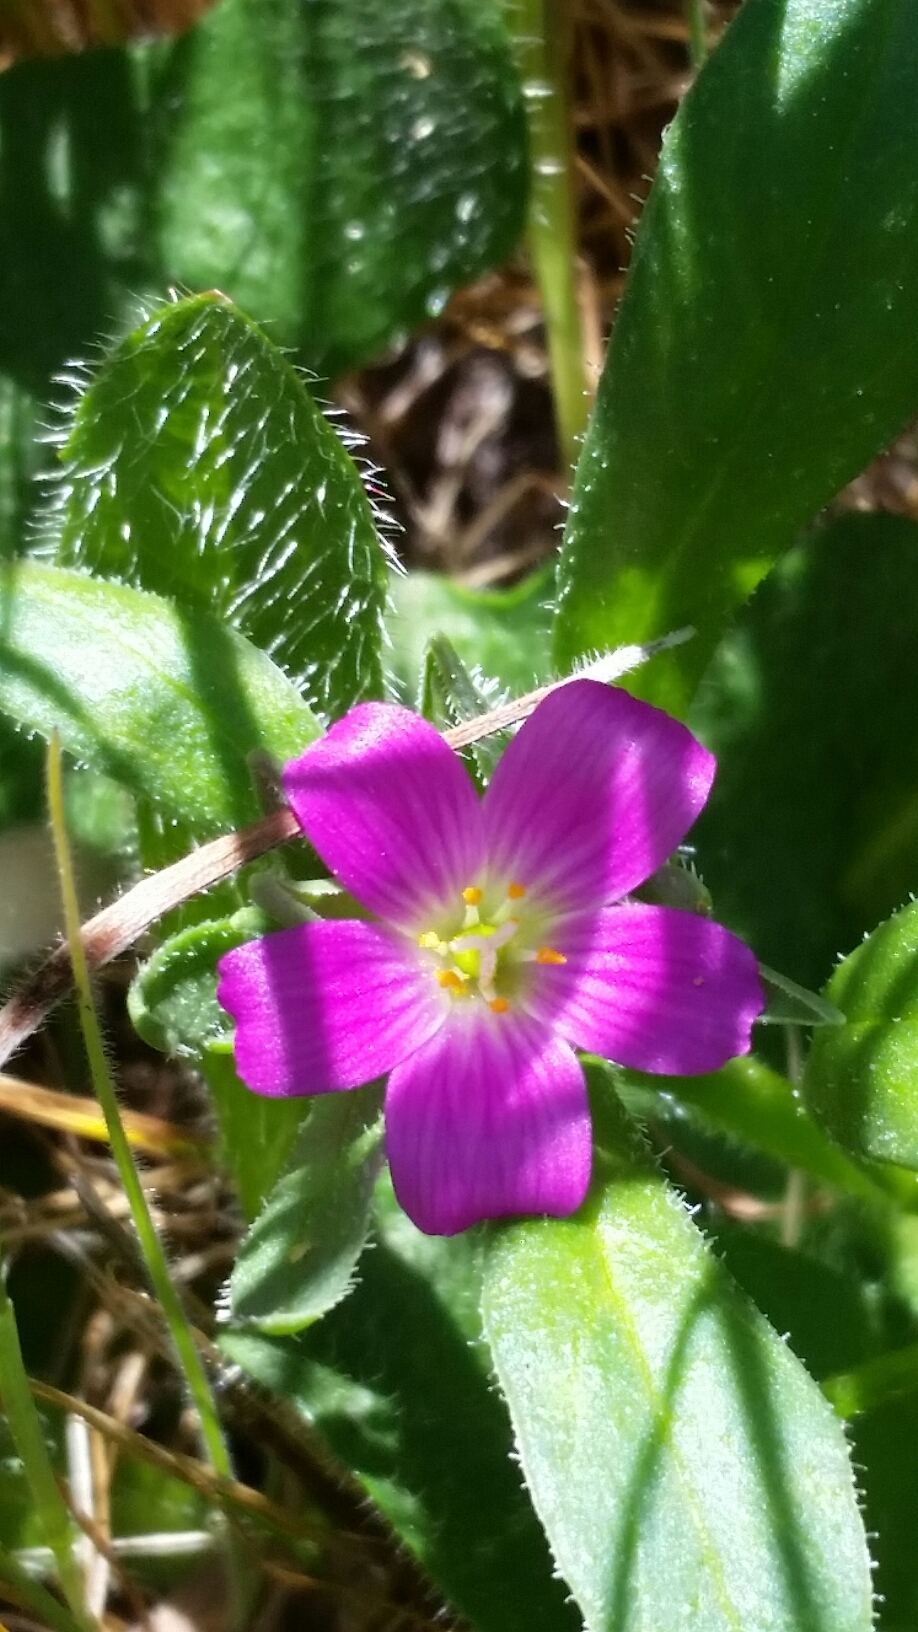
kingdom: Plantae
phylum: Tracheophyta
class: Magnoliopsida
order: Caryophyllales
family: Montiaceae
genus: Calandrinia
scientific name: Calandrinia menziesii
